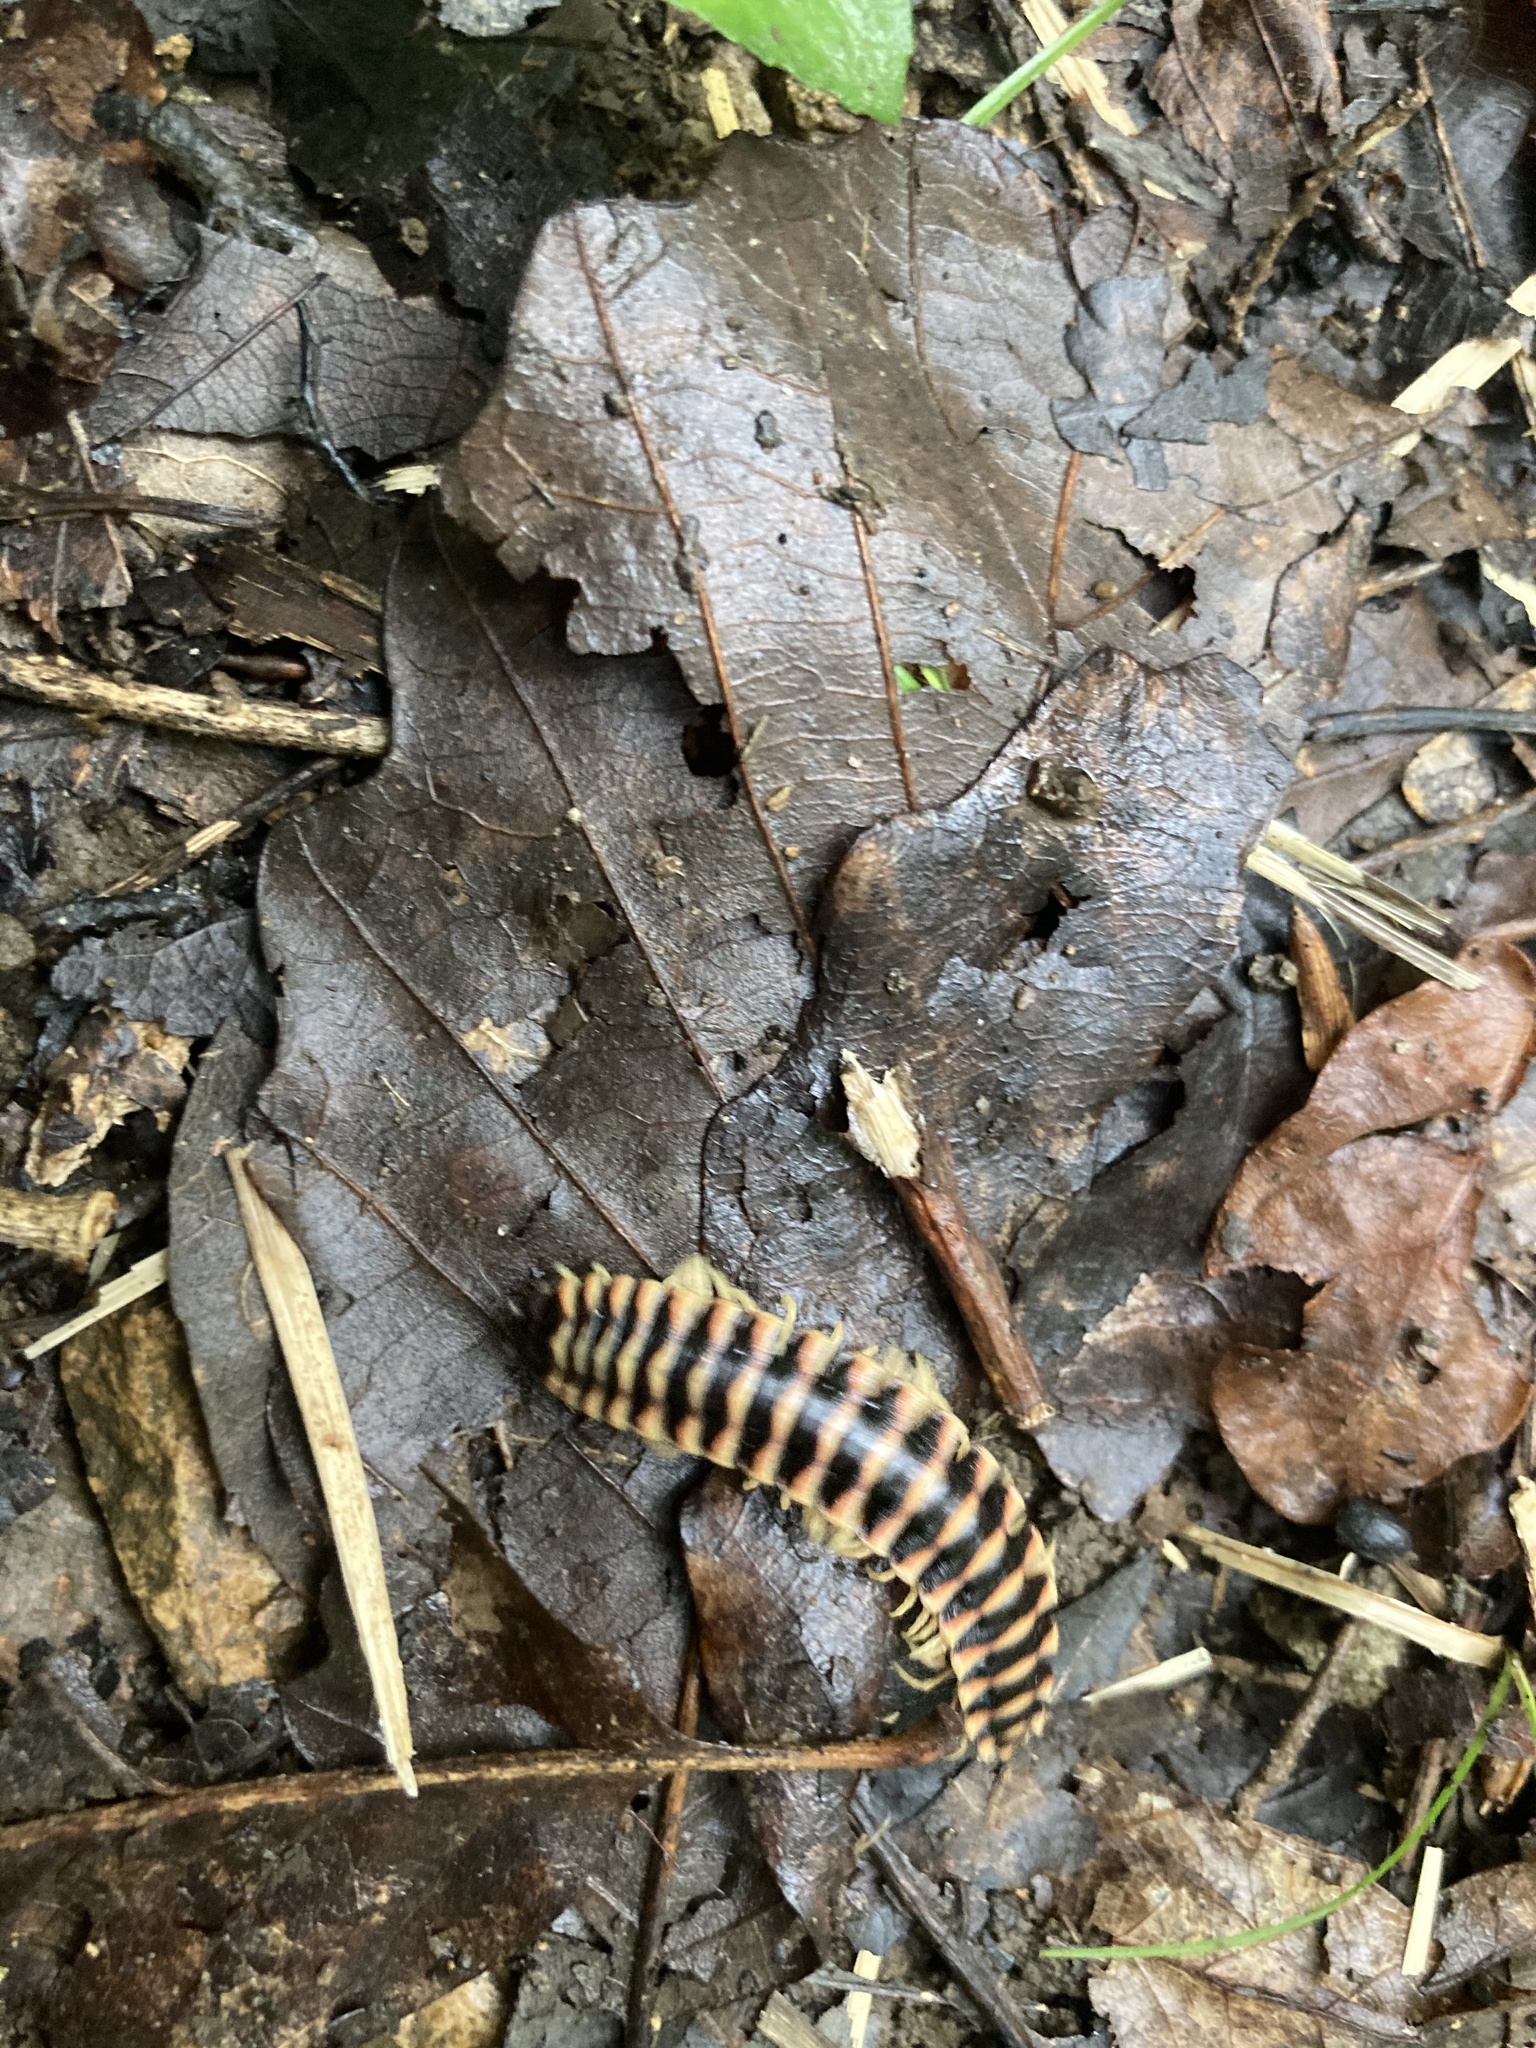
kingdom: Animalia
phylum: Arthropoda
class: Diplopoda
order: Polydesmida
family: Xystodesmidae
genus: Cherokia
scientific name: Cherokia georgiana
